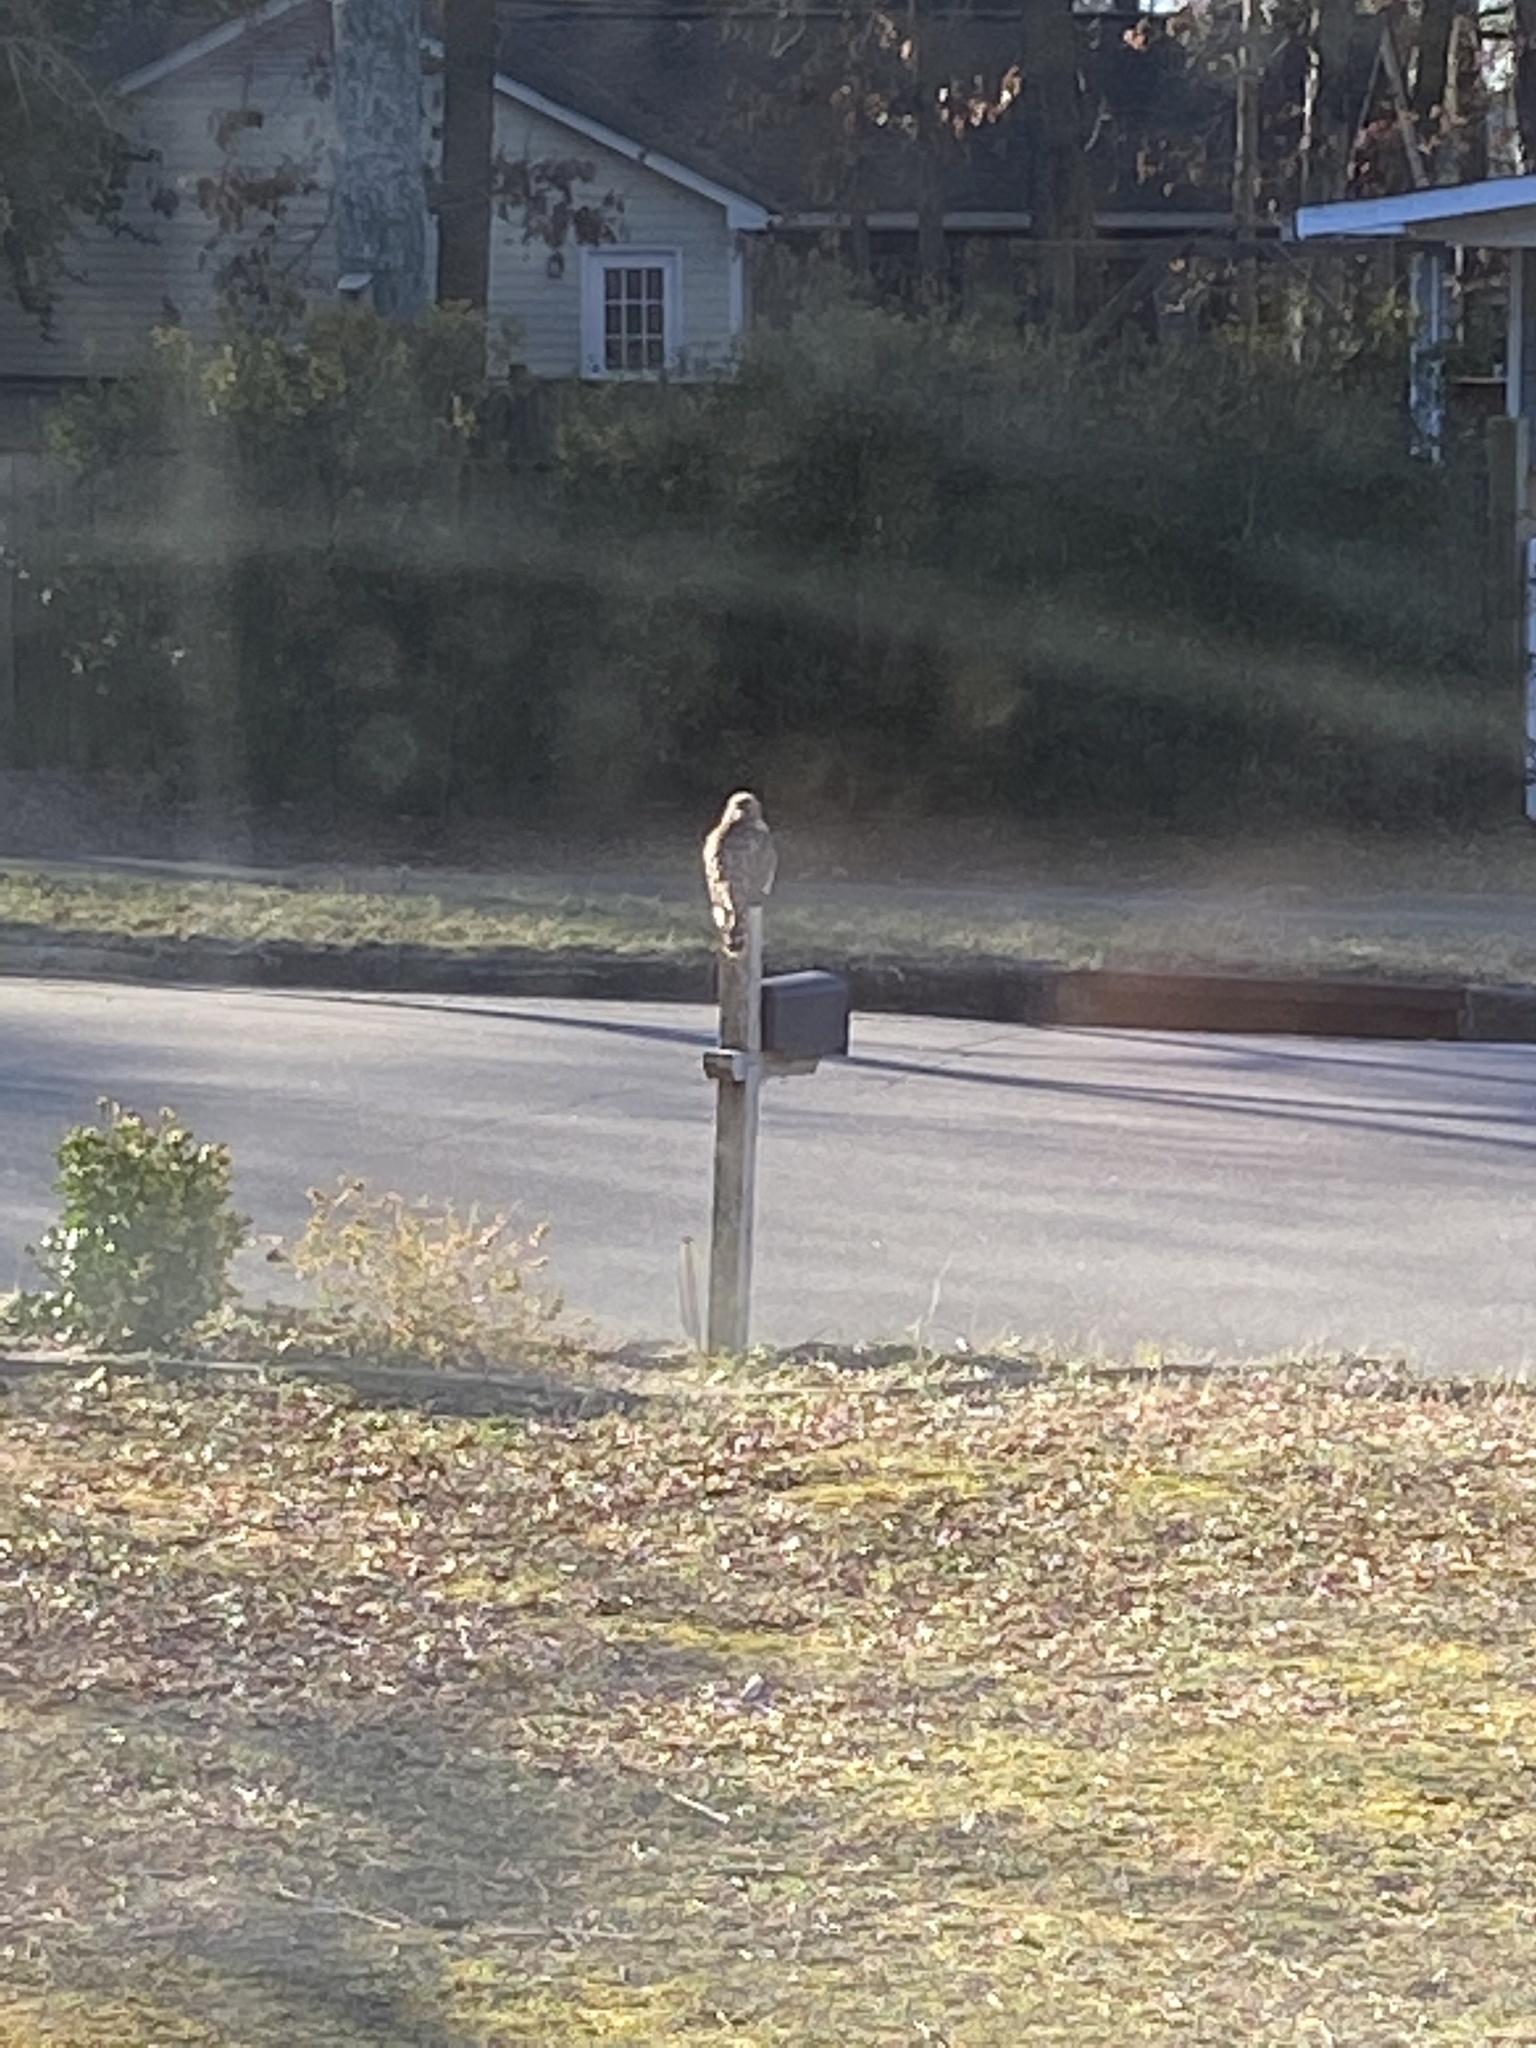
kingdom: Animalia
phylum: Chordata
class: Aves
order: Accipitriformes
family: Accipitridae
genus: Buteo
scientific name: Buteo lineatus
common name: Red-shouldered hawk
